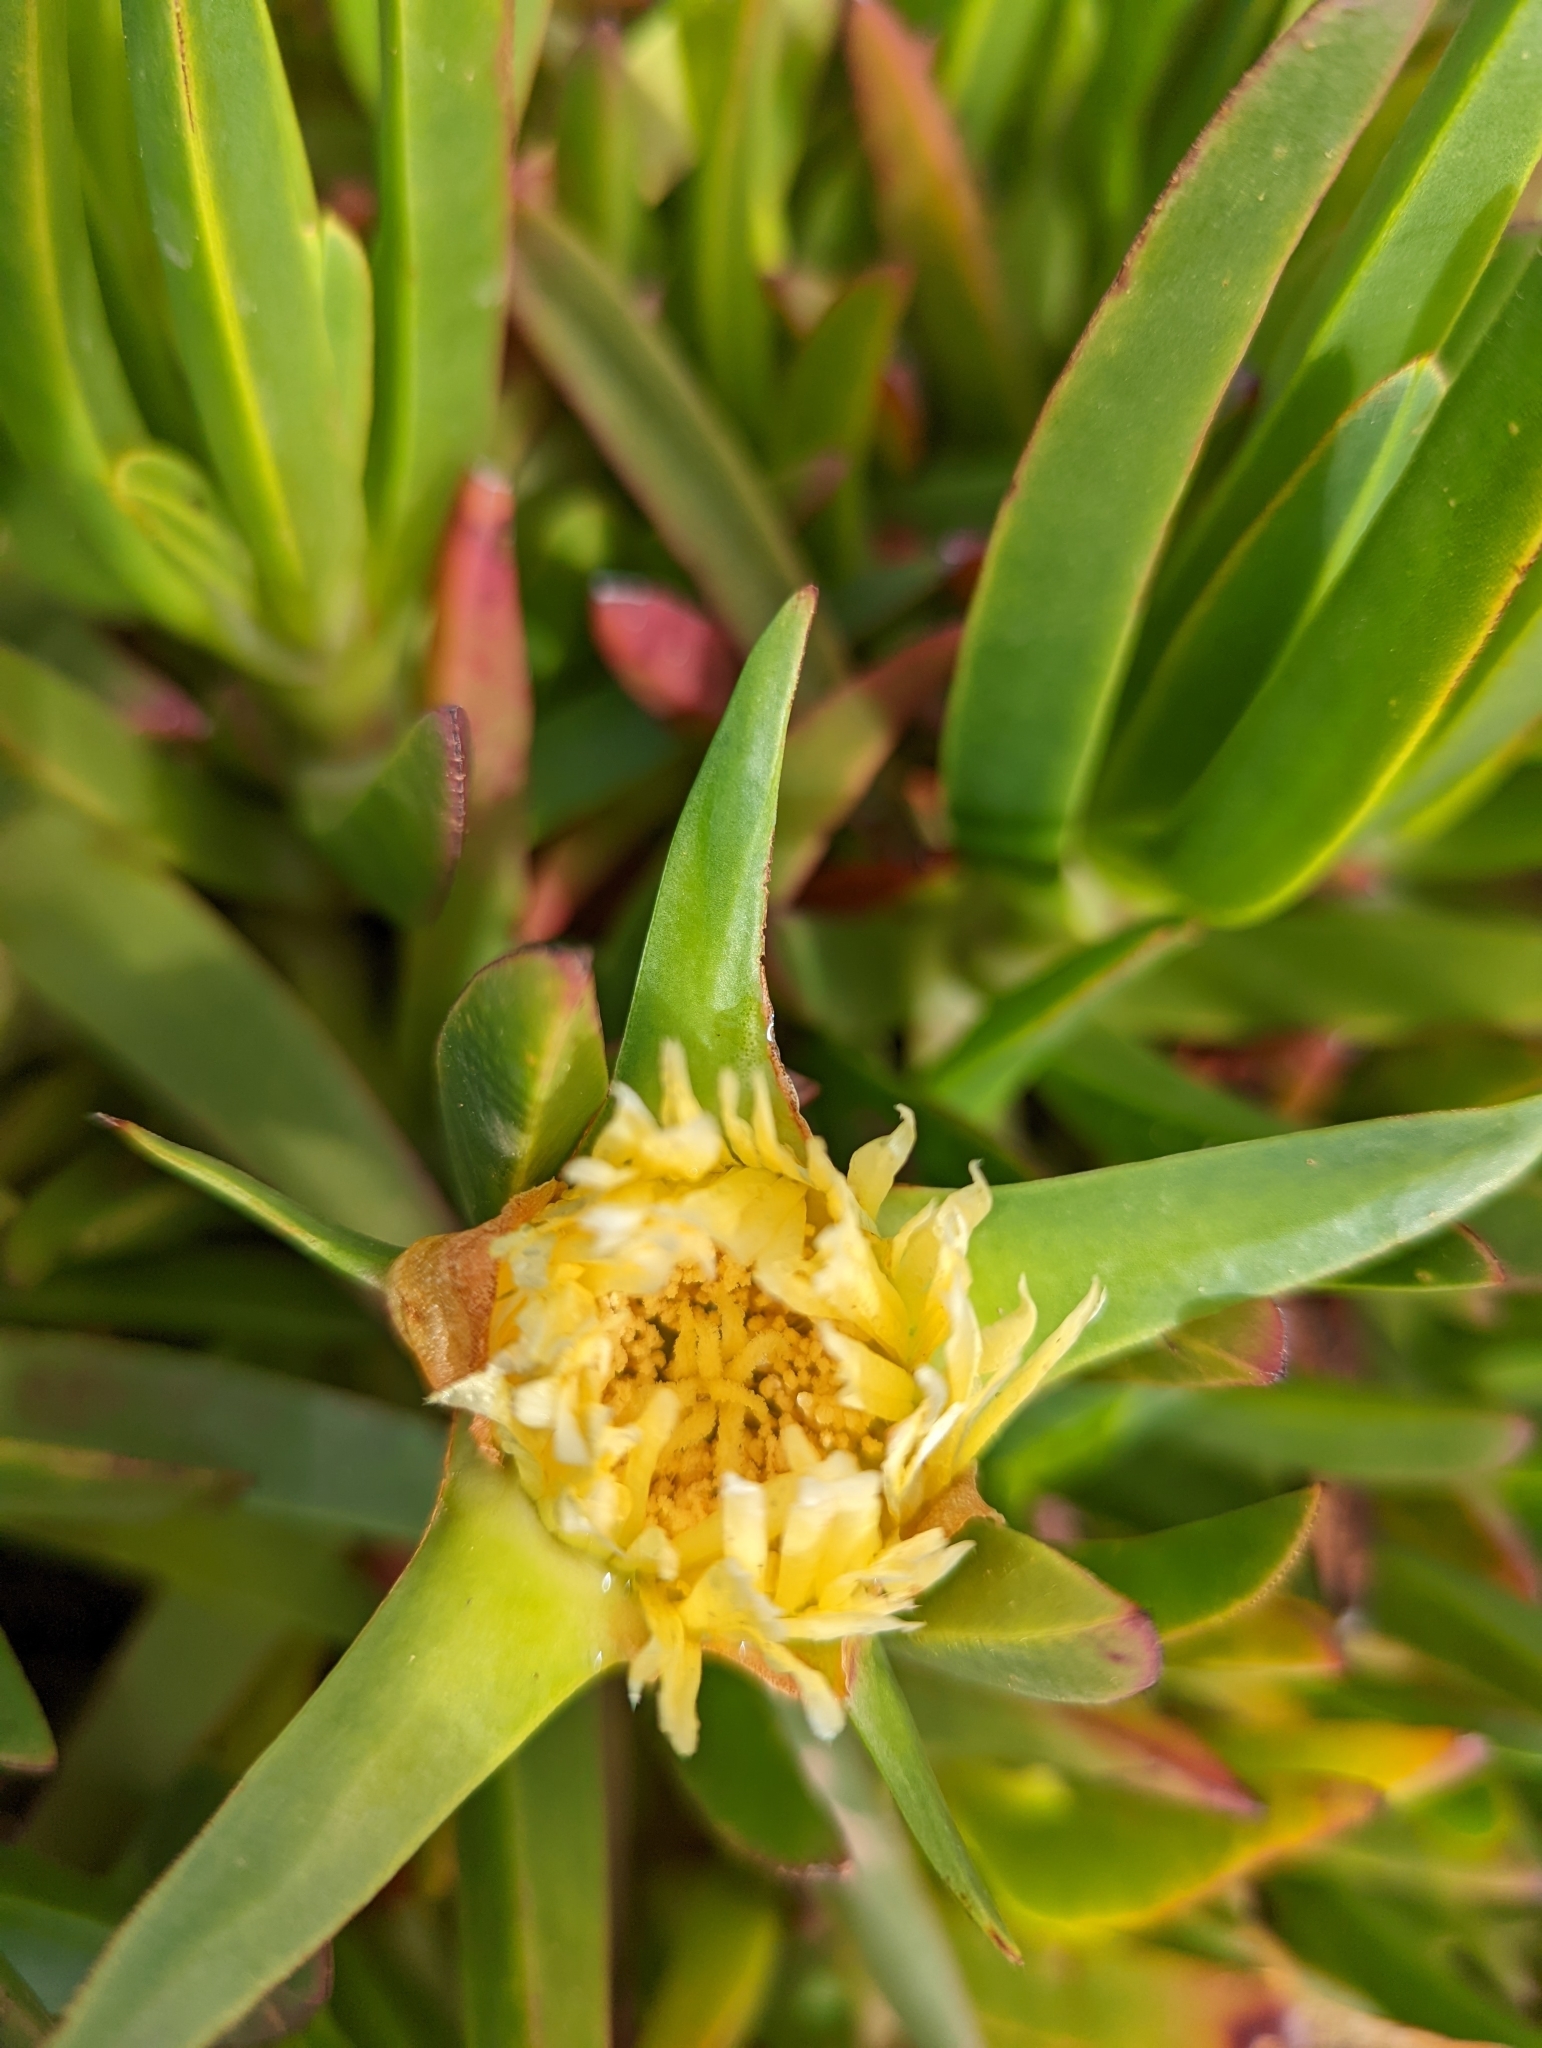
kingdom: Plantae
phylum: Tracheophyta
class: Magnoliopsida
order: Caryophyllales
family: Aizoaceae
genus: Carpobrotus
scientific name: Carpobrotus edulis
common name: Hottentot-fig
